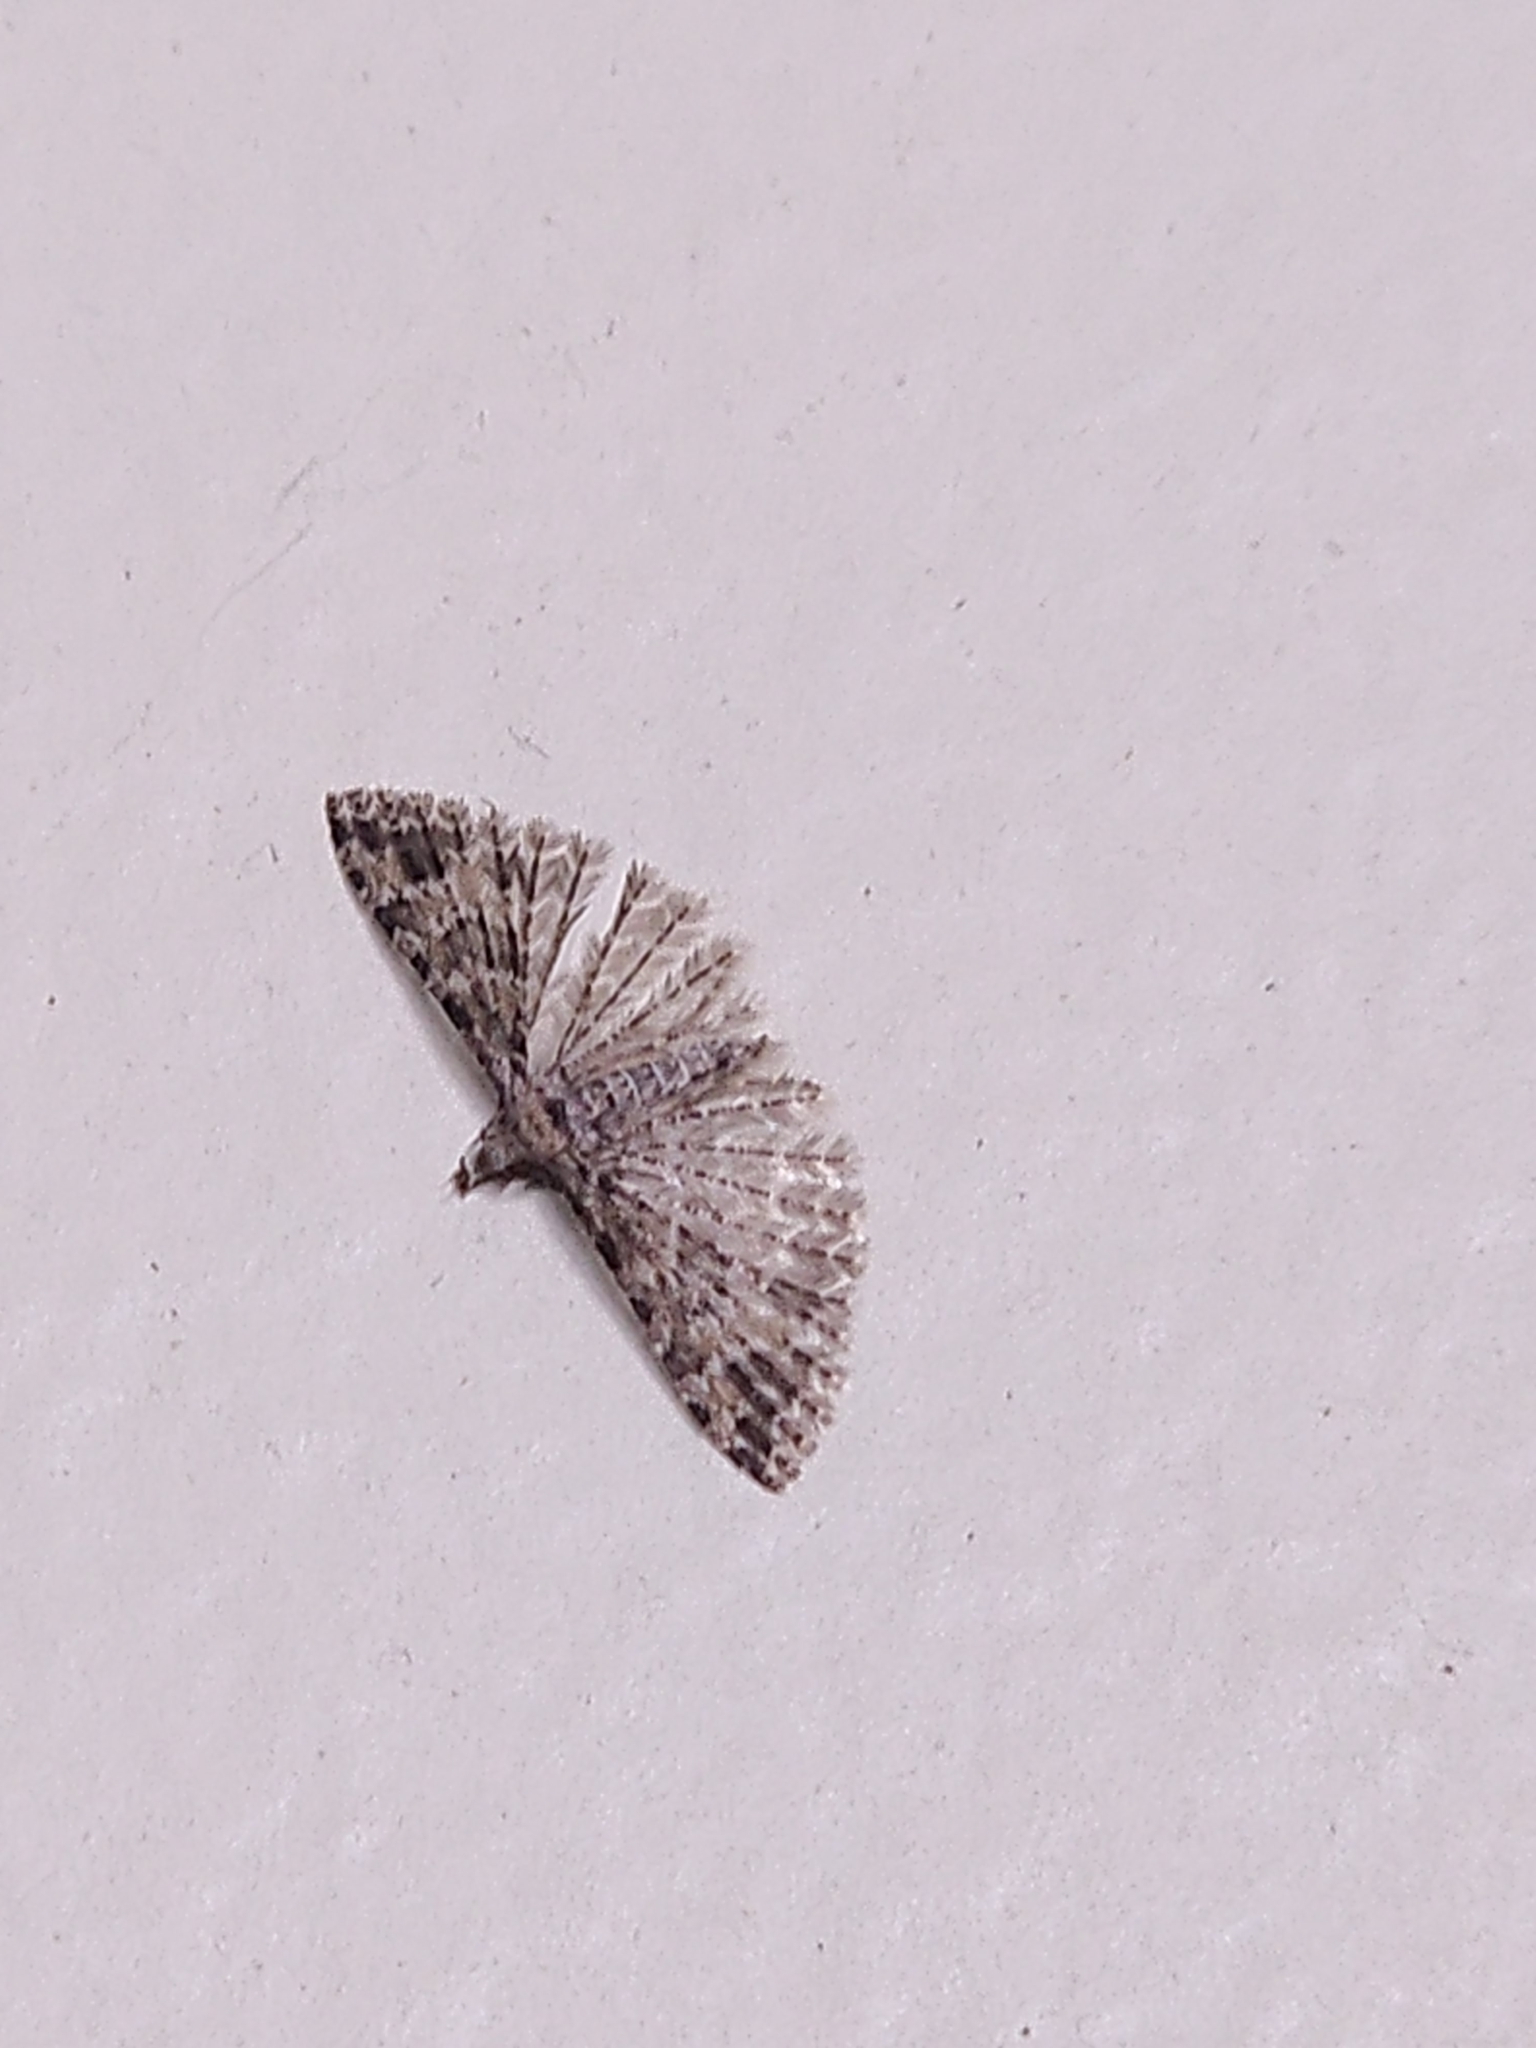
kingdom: Animalia
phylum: Arthropoda
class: Insecta
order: Lepidoptera
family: Alucitidae
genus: Alucita
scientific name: Alucita montana
